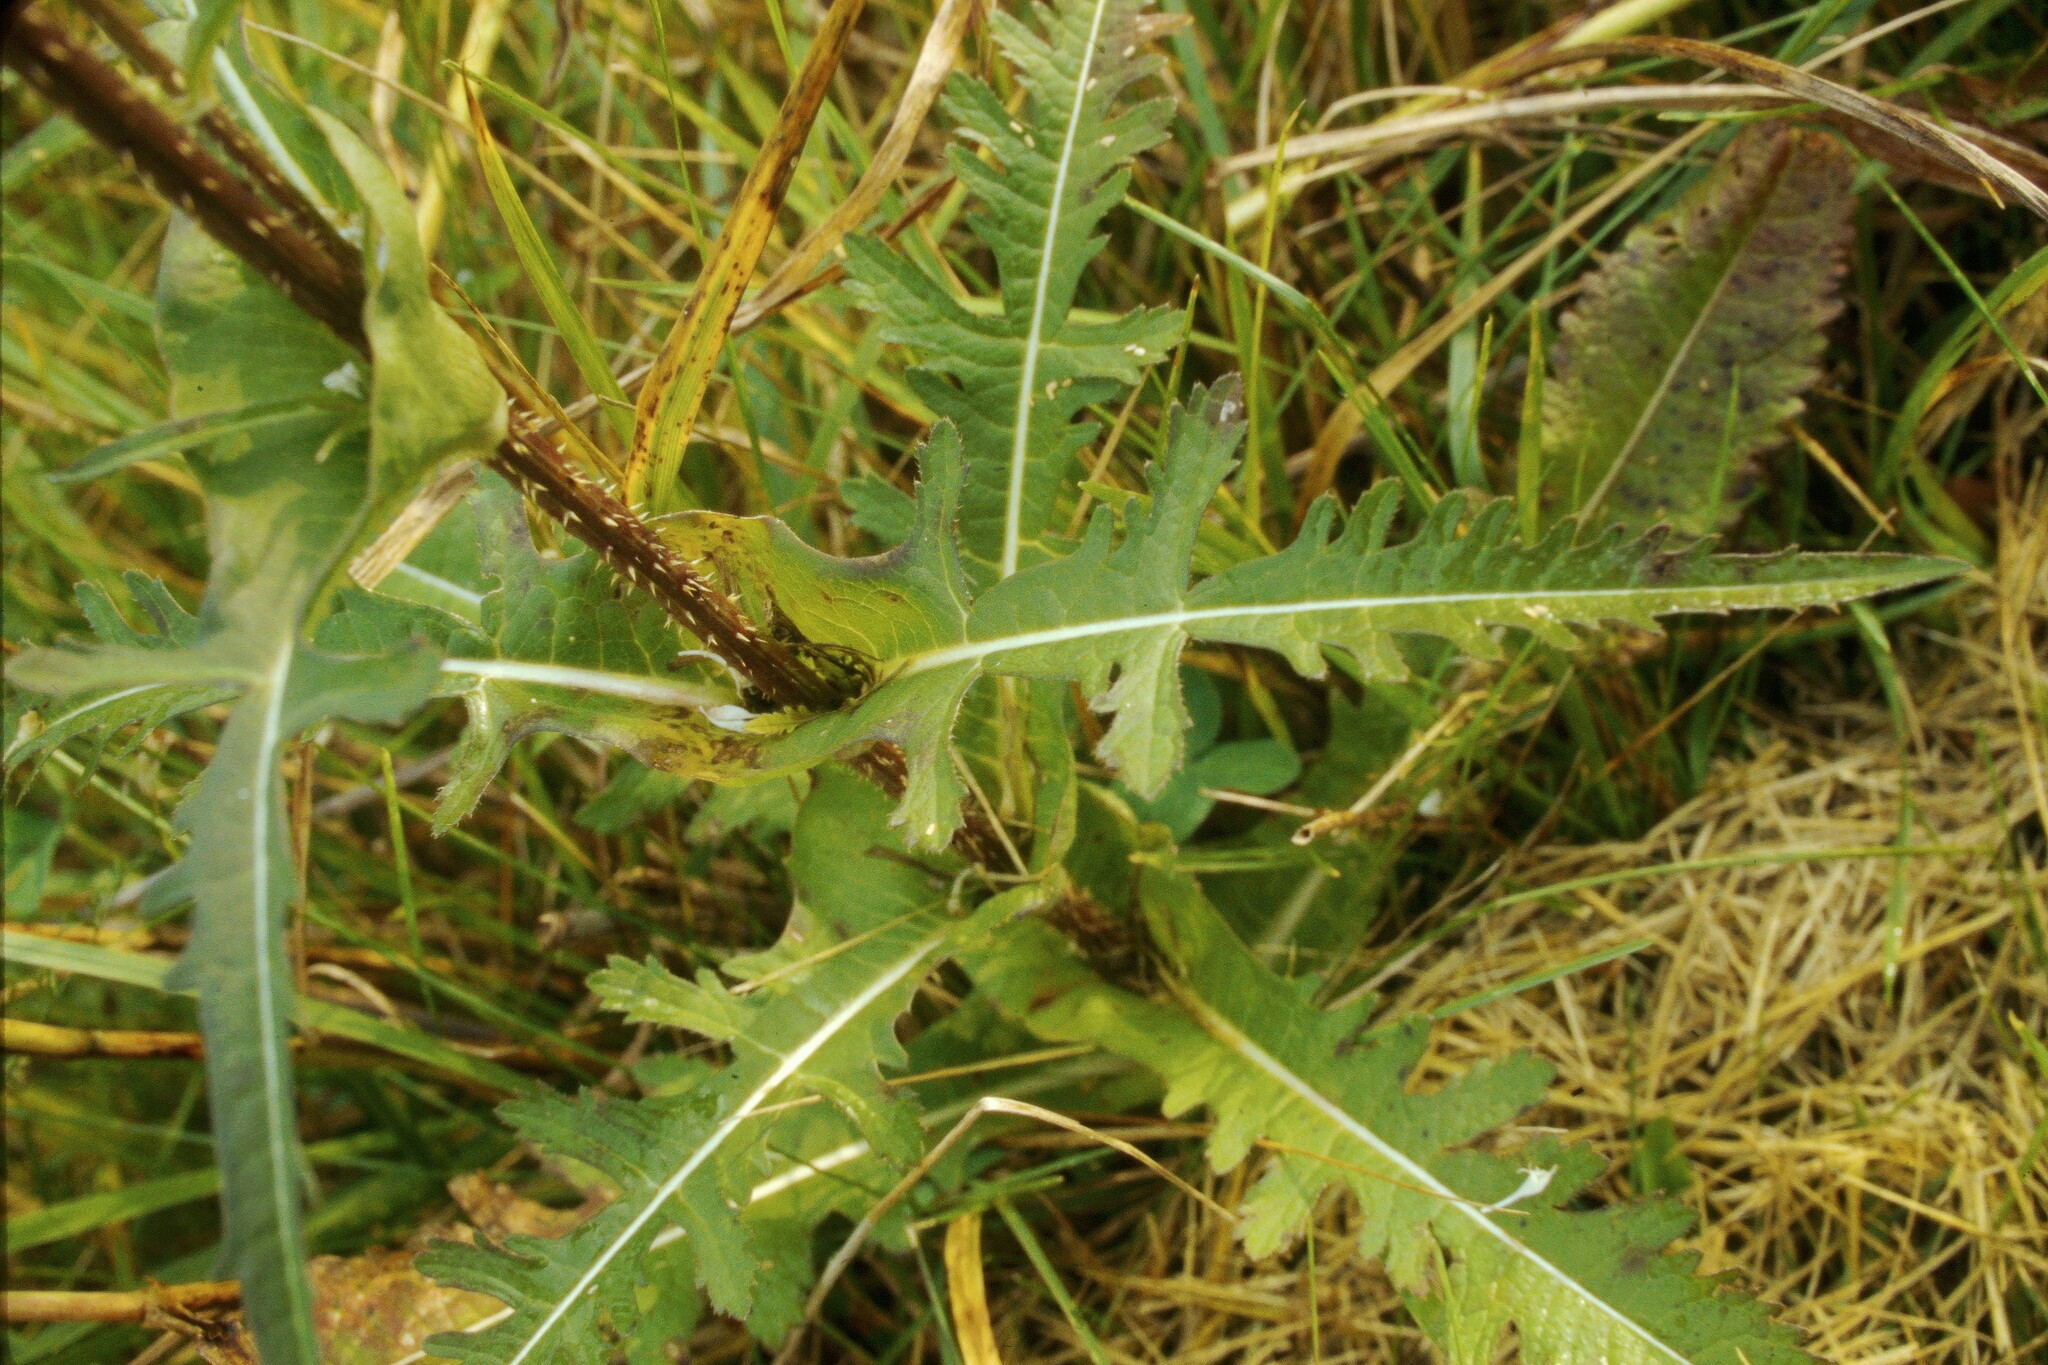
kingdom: Plantae
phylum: Tracheophyta
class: Magnoliopsida
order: Dipsacales
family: Caprifoliaceae
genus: Dipsacus
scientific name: Dipsacus laciniatus
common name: Cut-leaved teasel
